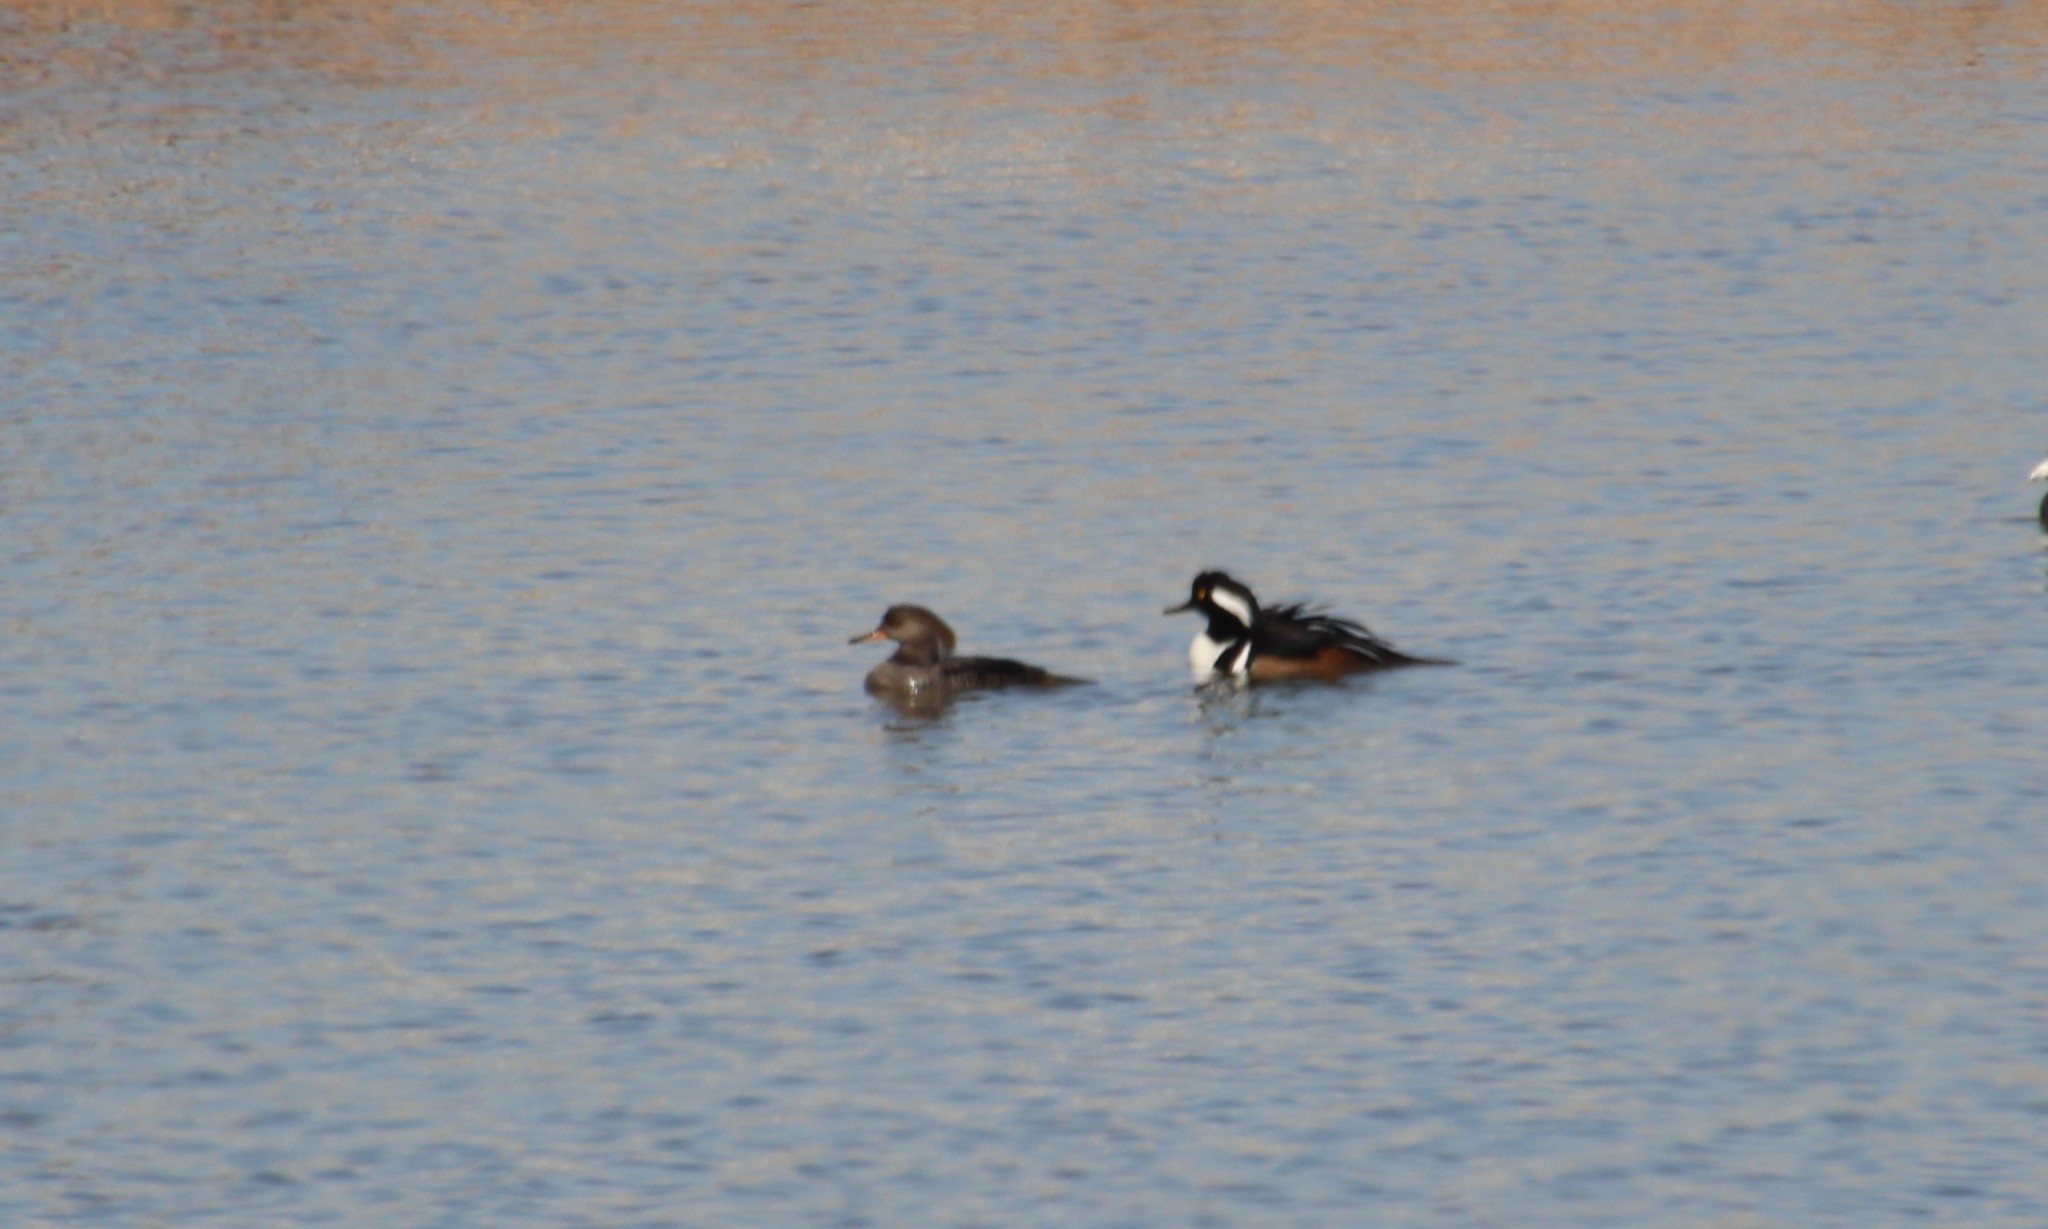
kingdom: Animalia
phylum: Chordata
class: Aves
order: Anseriformes
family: Anatidae
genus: Lophodytes
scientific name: Lophodytes cucullatus
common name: Hooded merganser
